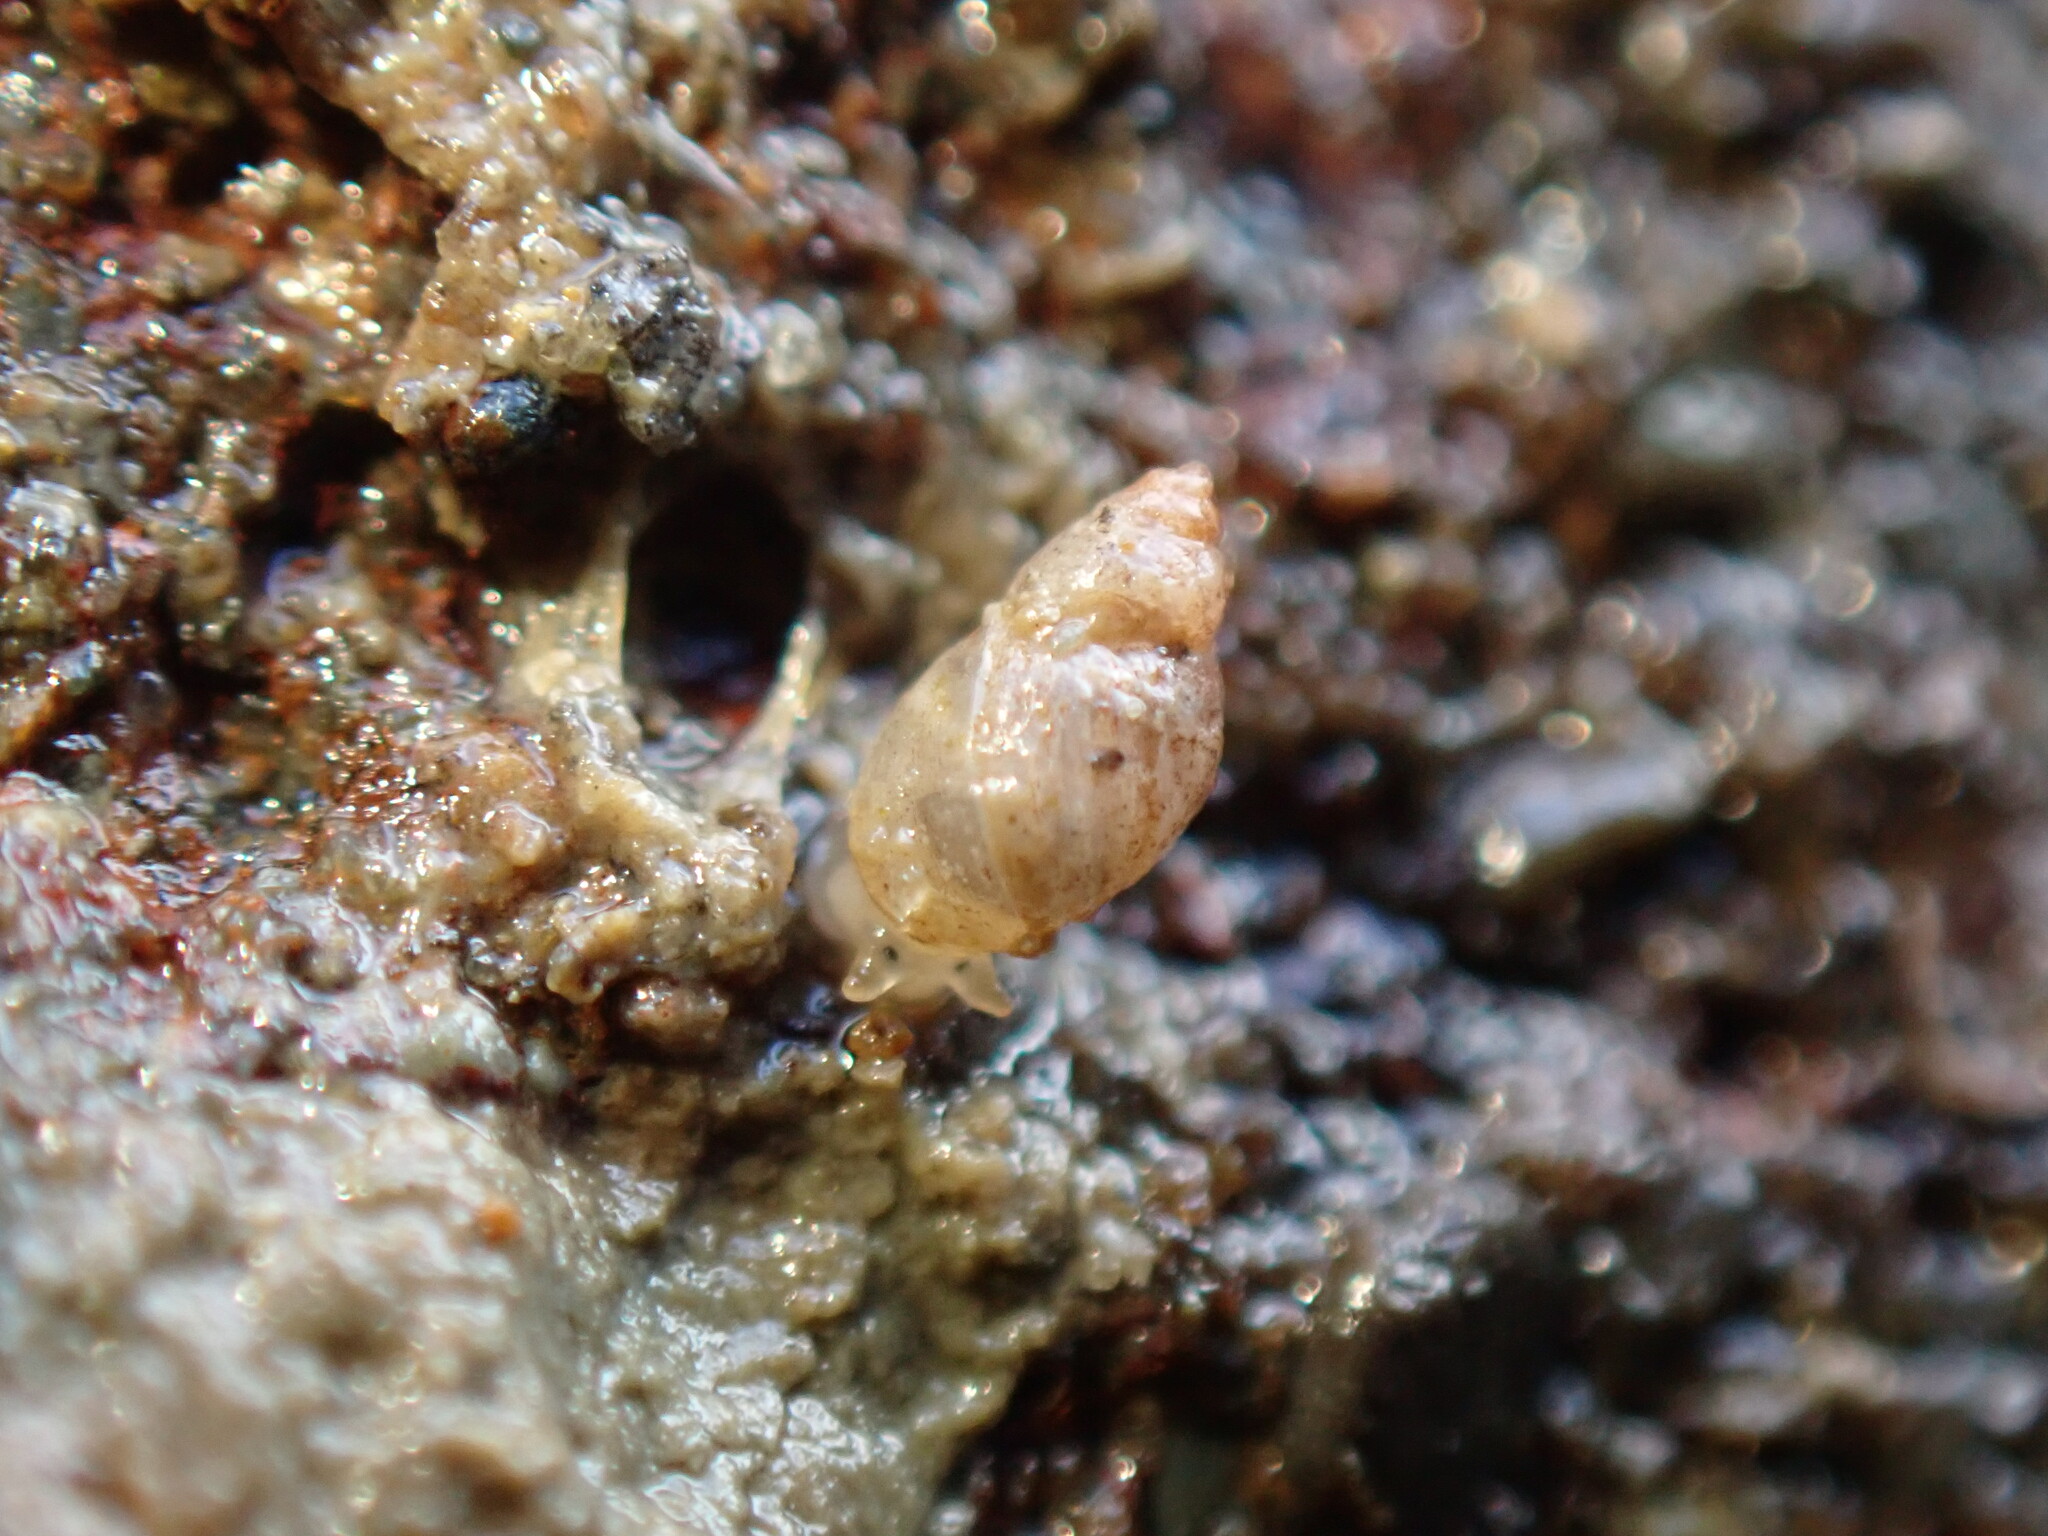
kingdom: Animalia
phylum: Mollusca
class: Gastropoda
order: Ellobiida
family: Ellobiidae
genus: Leuconopsis
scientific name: Leuconopsis obsoleta
